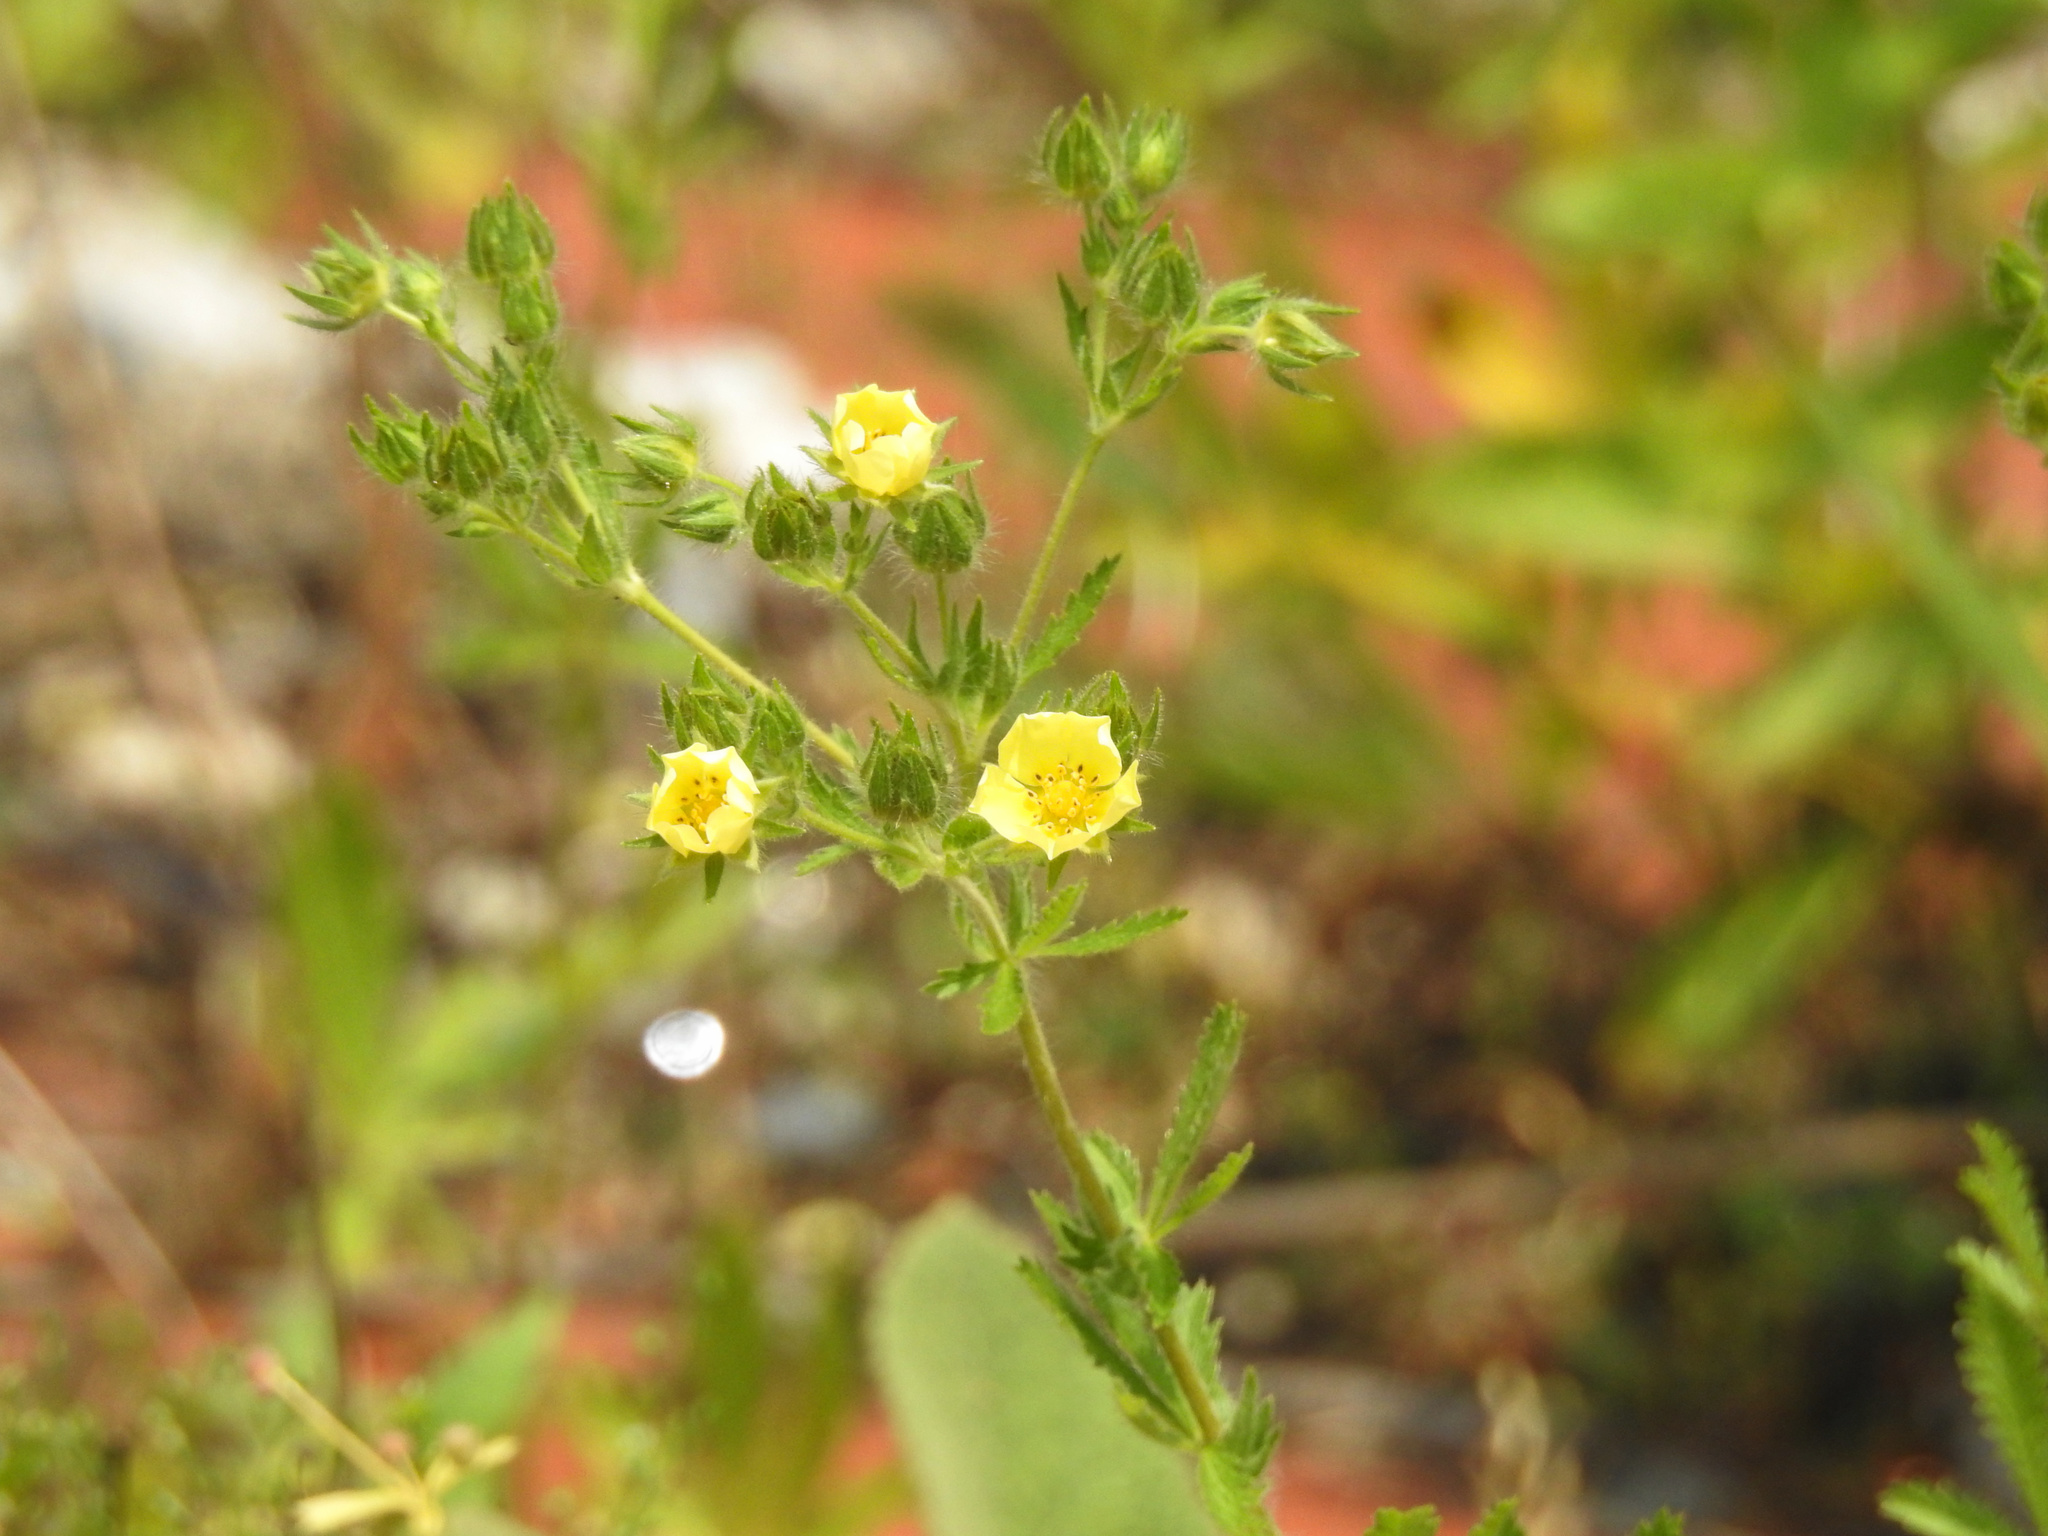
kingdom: Plantae
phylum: Tracheophyta
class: Magnoliopsida
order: Rosales
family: Rosaceae
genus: Potentilla
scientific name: Potentilla recta
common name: Sulphur cinquefoil
